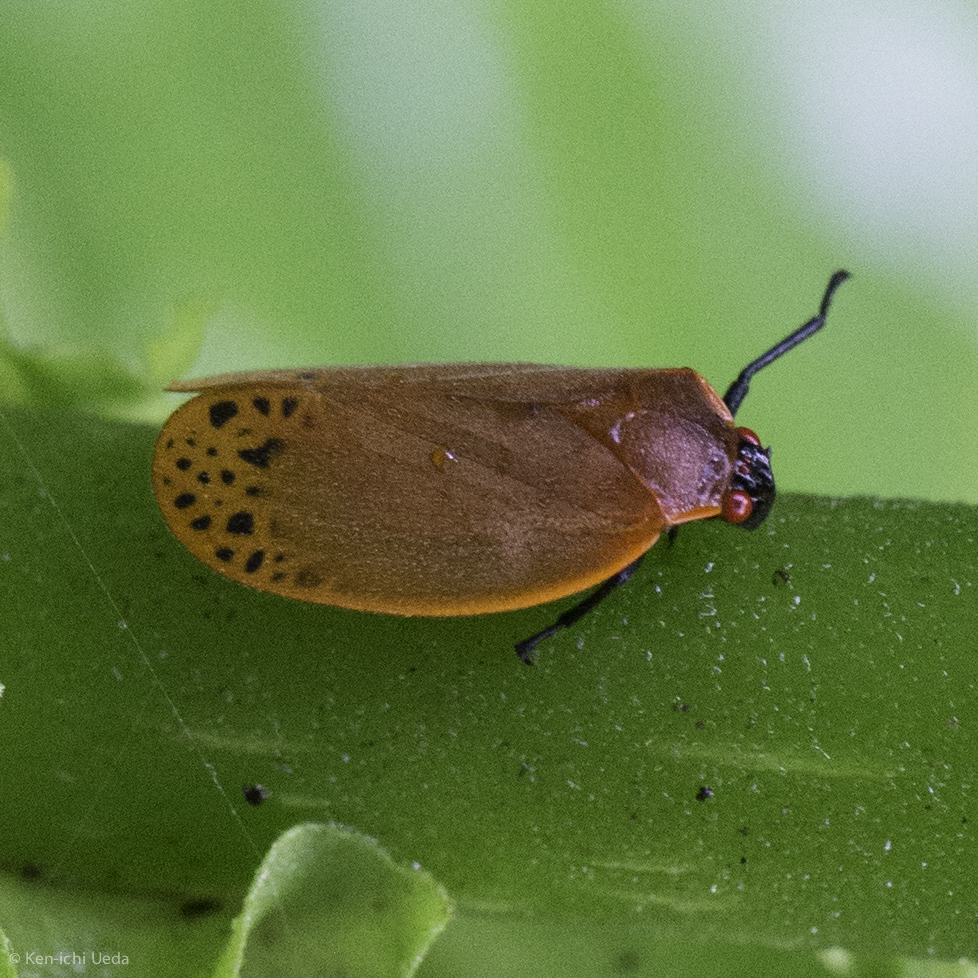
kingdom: Animalia
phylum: Arthropoda
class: Insecta
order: Hemiptera
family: Cercopidae
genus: Tomaspis
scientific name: Tomaspis biolleyi
